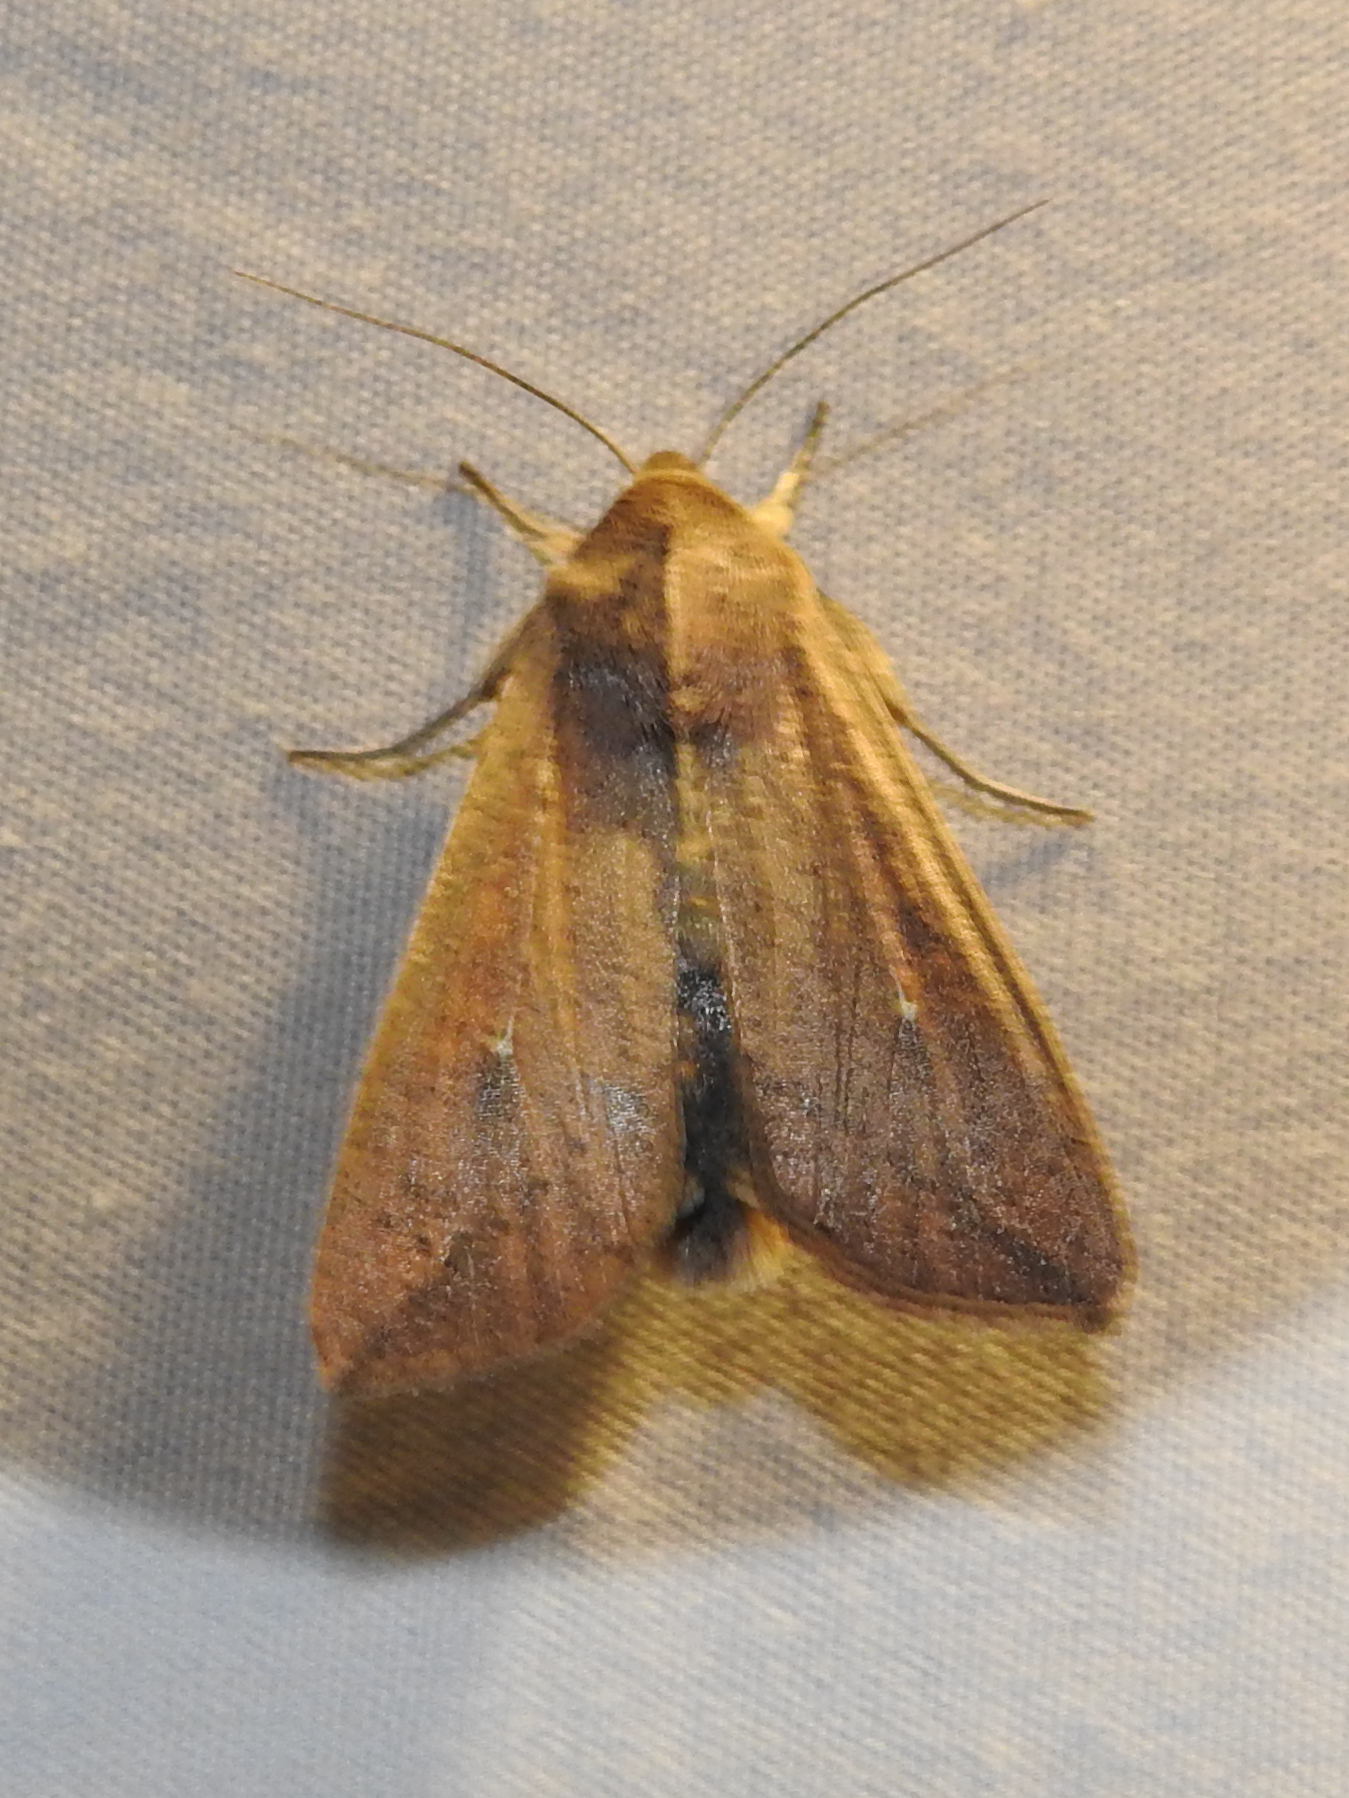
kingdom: Animalia
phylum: Arthropoda
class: Insecta
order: Lepidoptera
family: Noctuidae
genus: Mythimna
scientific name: Mythimna unipuncta
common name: White-speck
